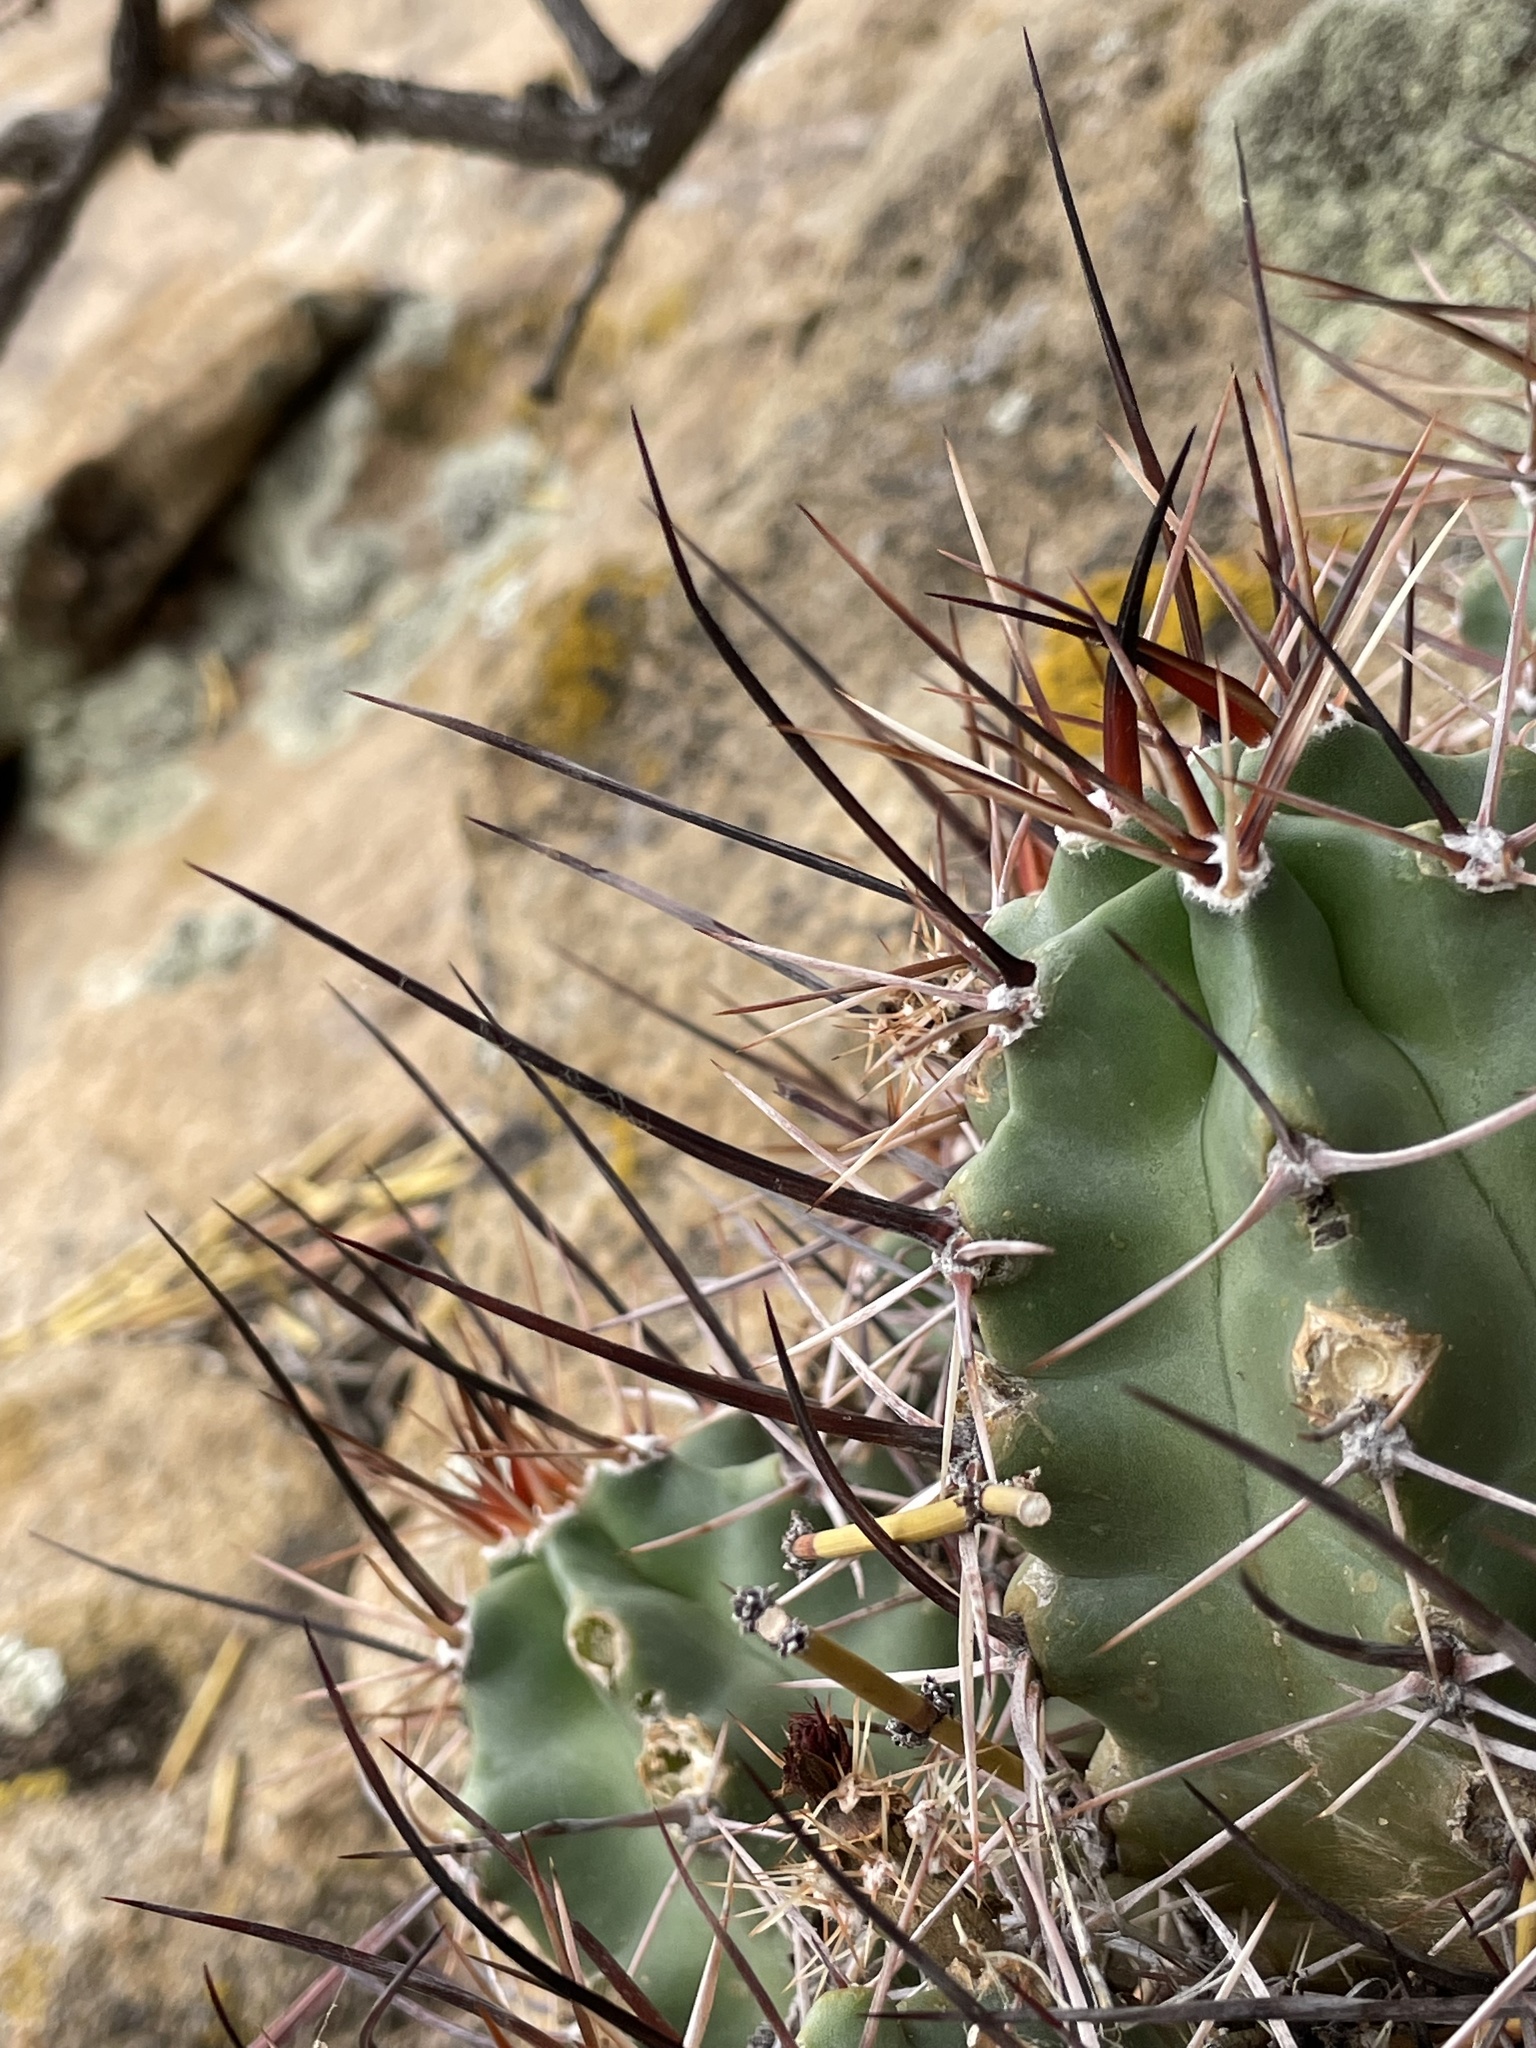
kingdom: Plantae
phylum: Tracheophyta
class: Magnoliopsida
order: Caryophyllales
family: Cactaceae
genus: Echinocereus
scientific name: Echinocereus triglochidiatus
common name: Claretcup hedgehog
